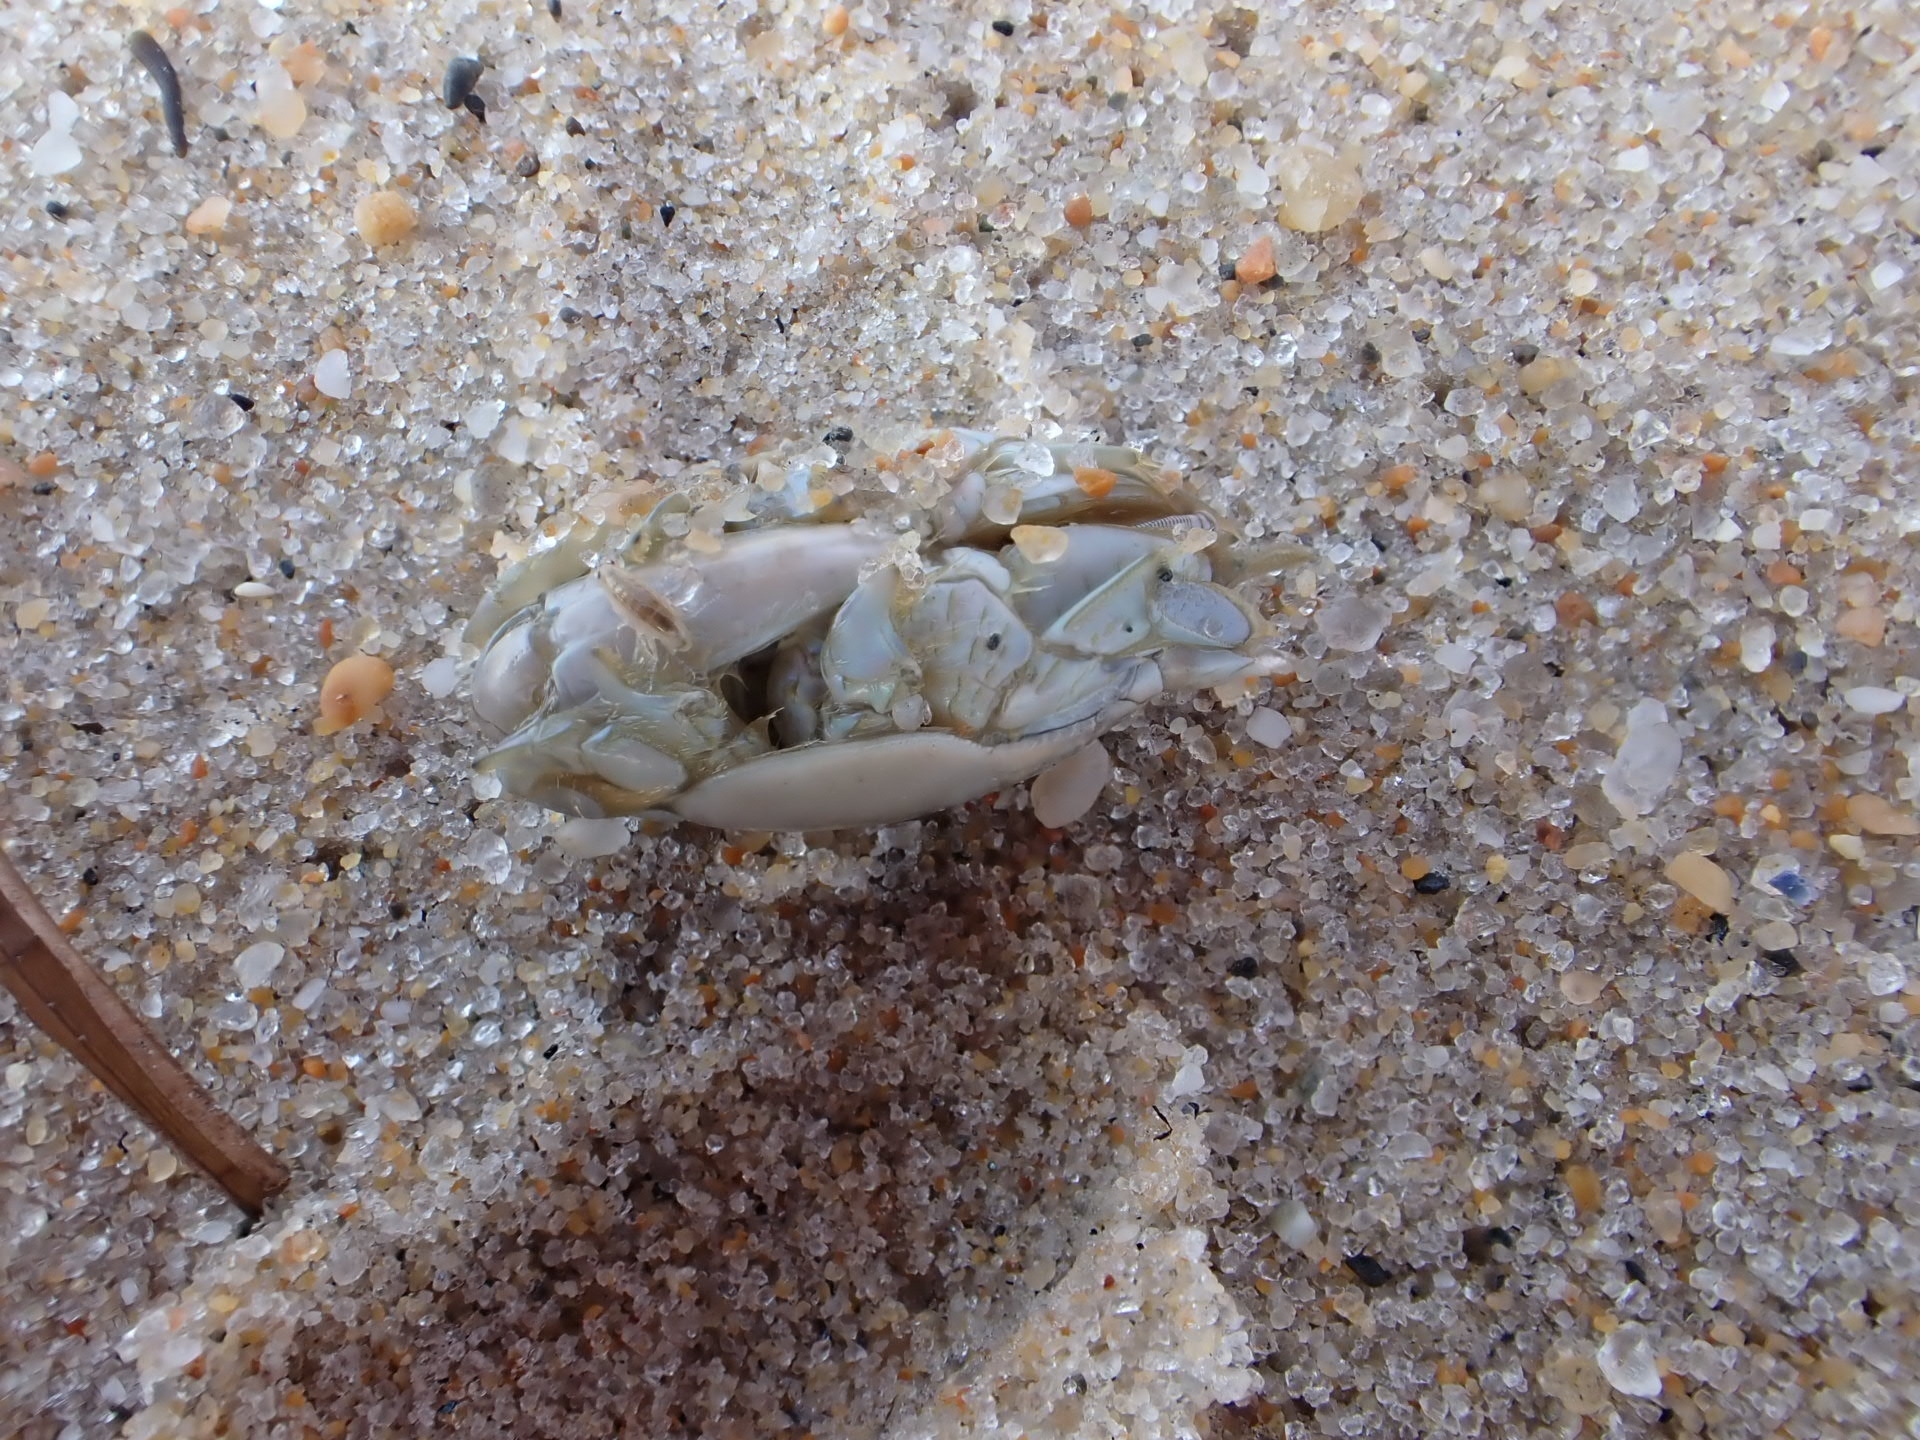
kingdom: Animalia
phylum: Arthropoda
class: Malacostraca
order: Decapoda
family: Hippidae
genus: Emerita
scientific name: Emerita talpoida
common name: Atlantic sand crab
